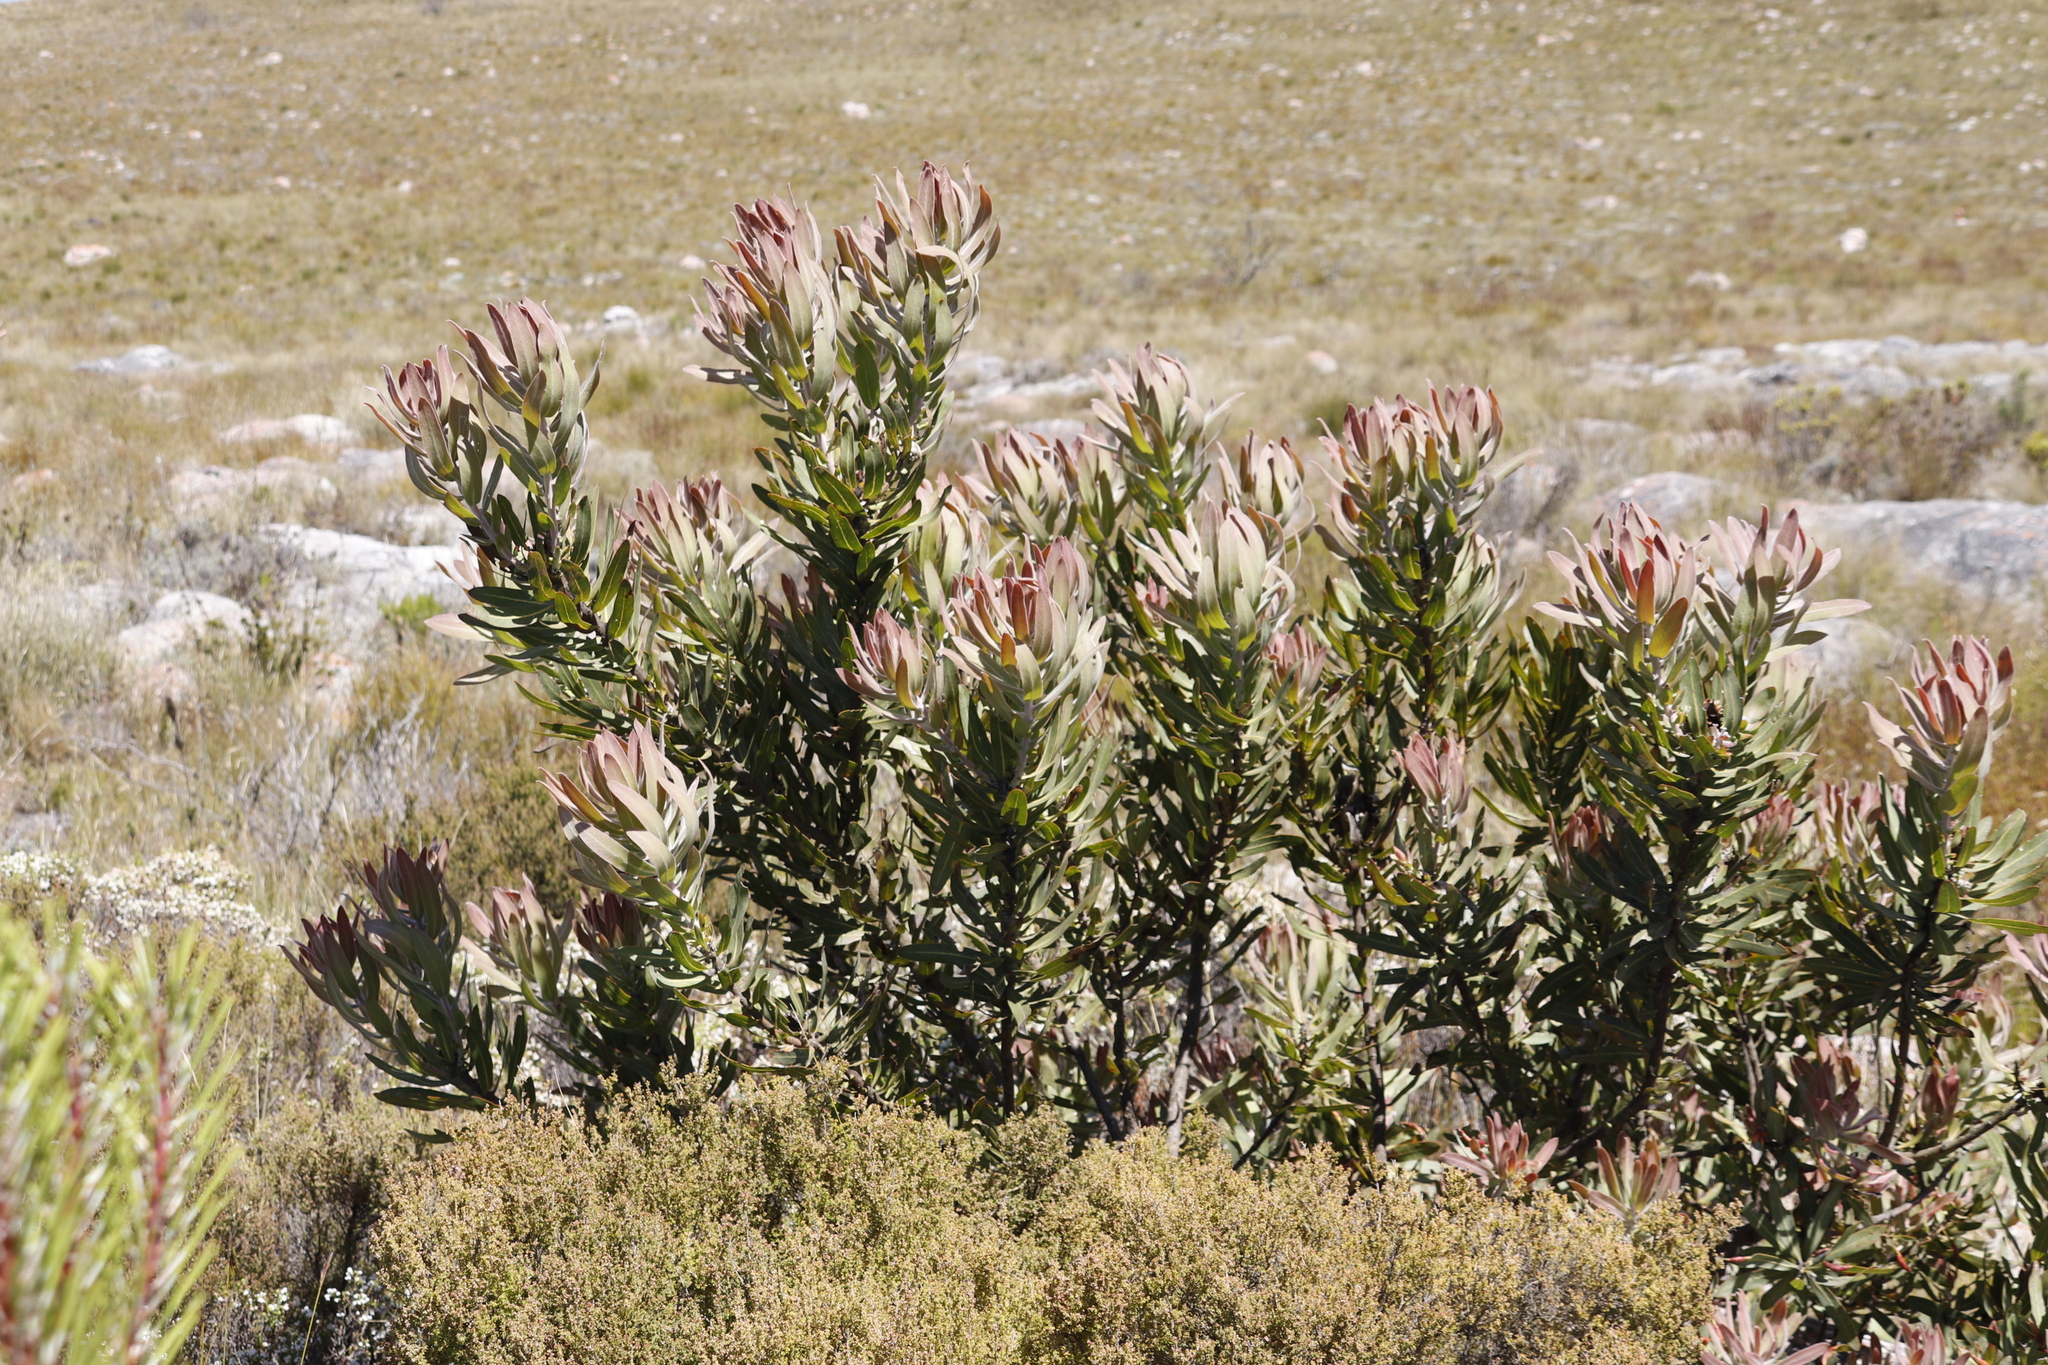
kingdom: Plantae
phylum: Tracheophyta
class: Magnoliopsida
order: Proteales
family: Proteaceae
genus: Protea
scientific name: Protea neriifolia
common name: Blue sugarbush
